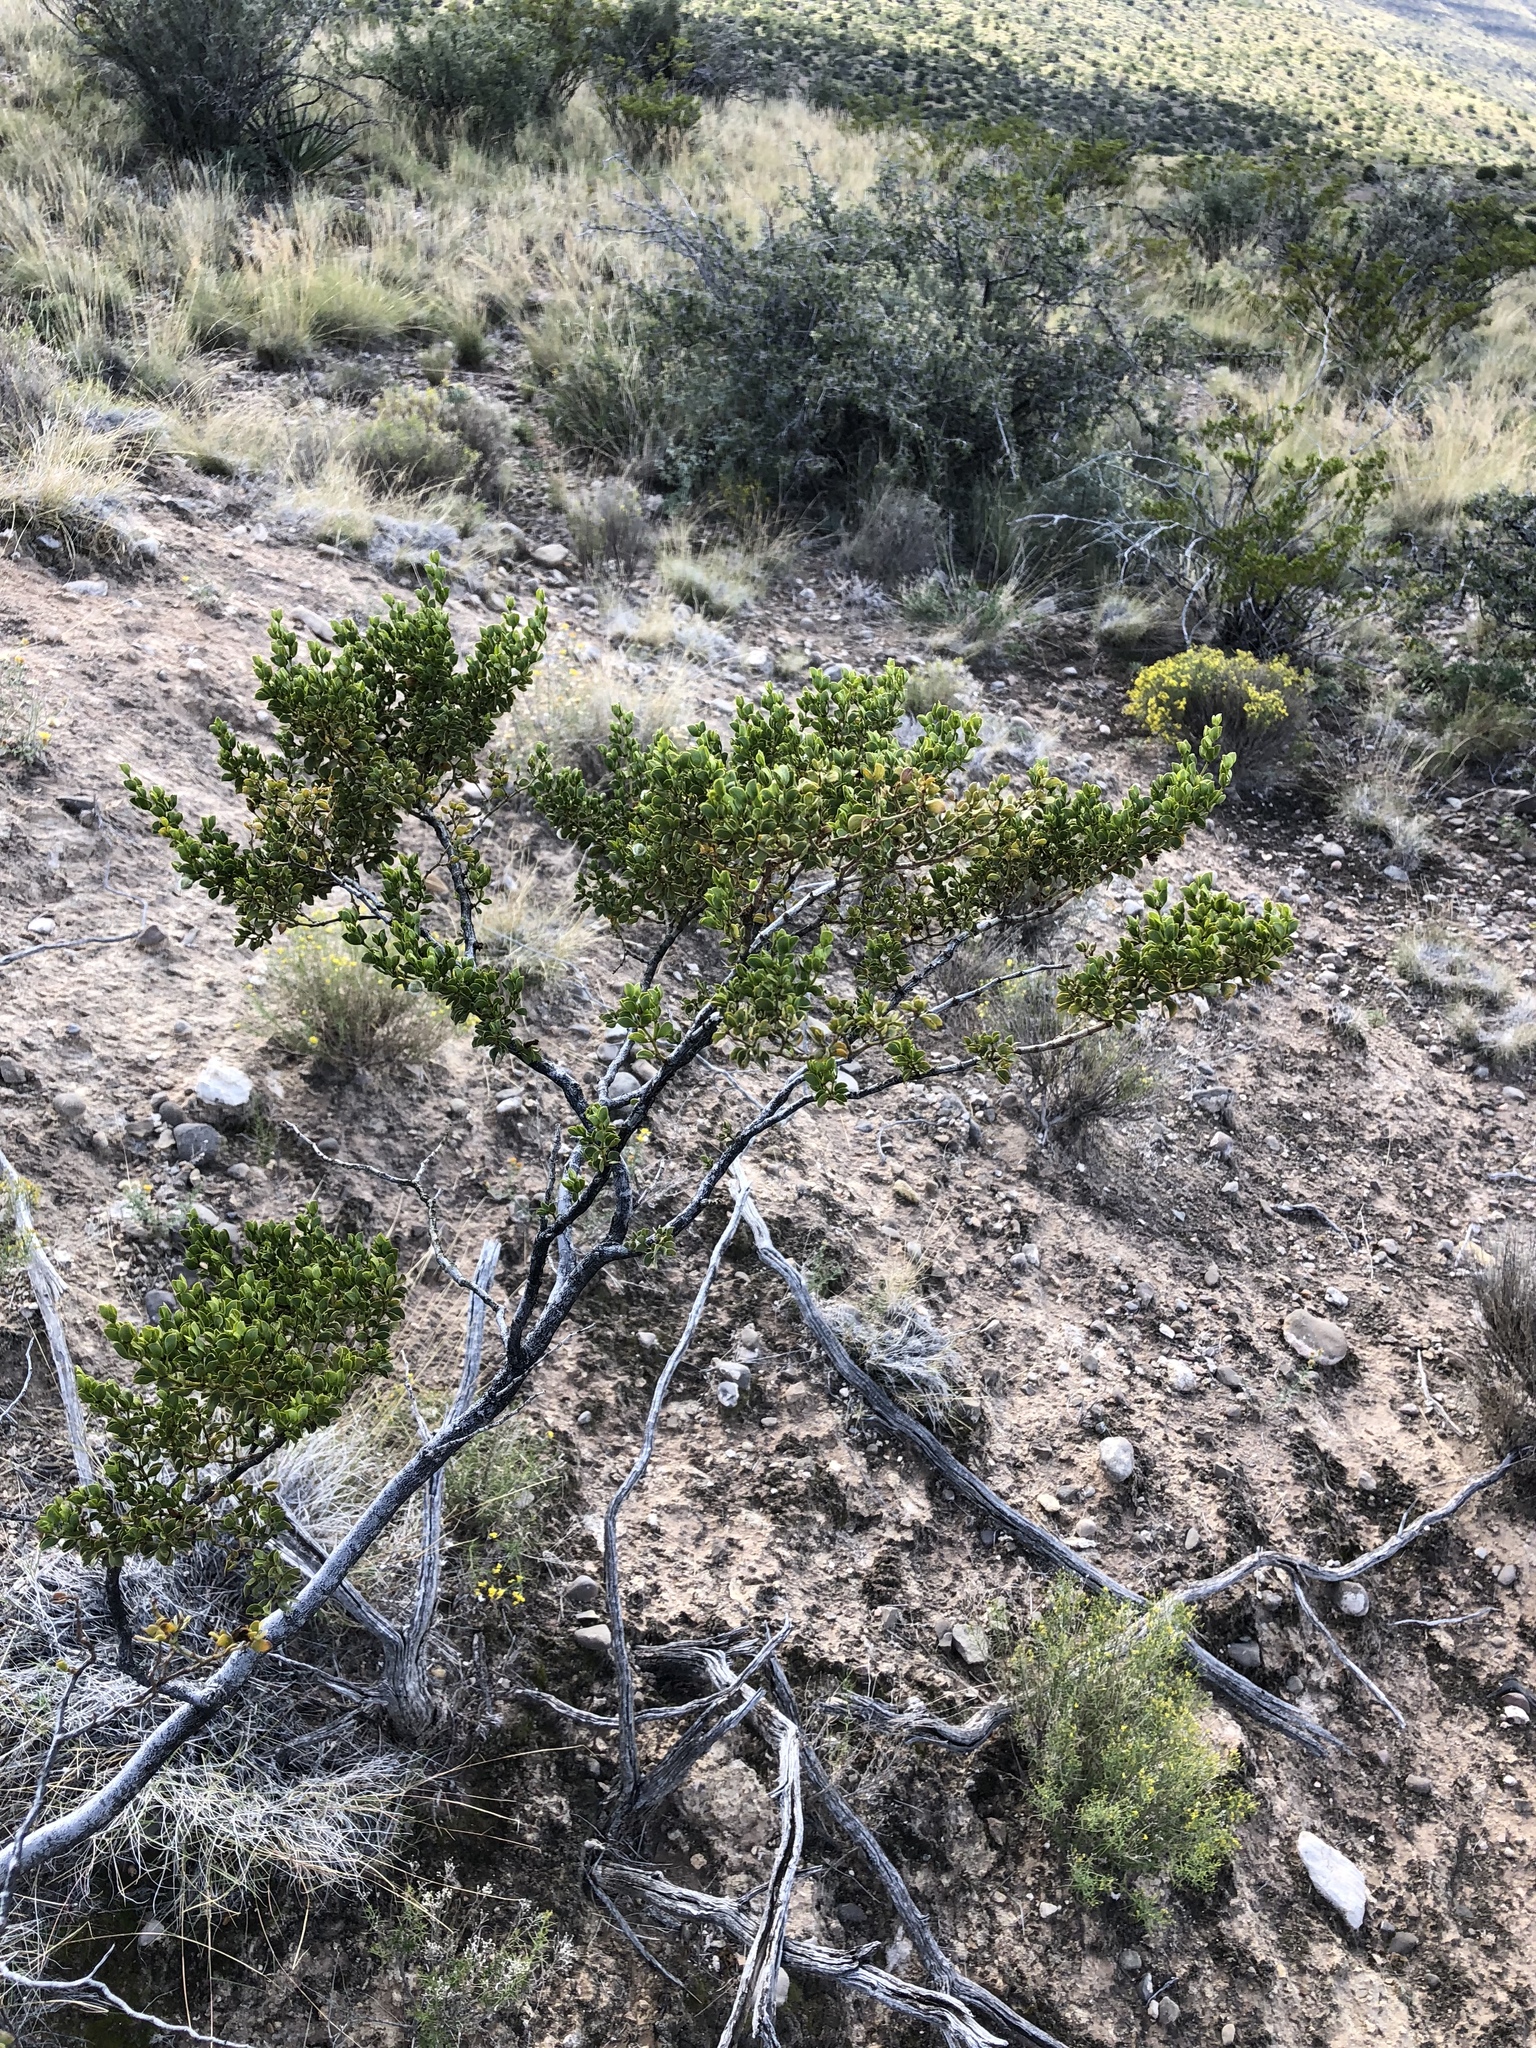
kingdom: Plantae
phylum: Tracheophyta
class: Magnoliopsida
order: Zygophyllales
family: Zygophyllaceae
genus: Larrea
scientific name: Larrea tridentata
